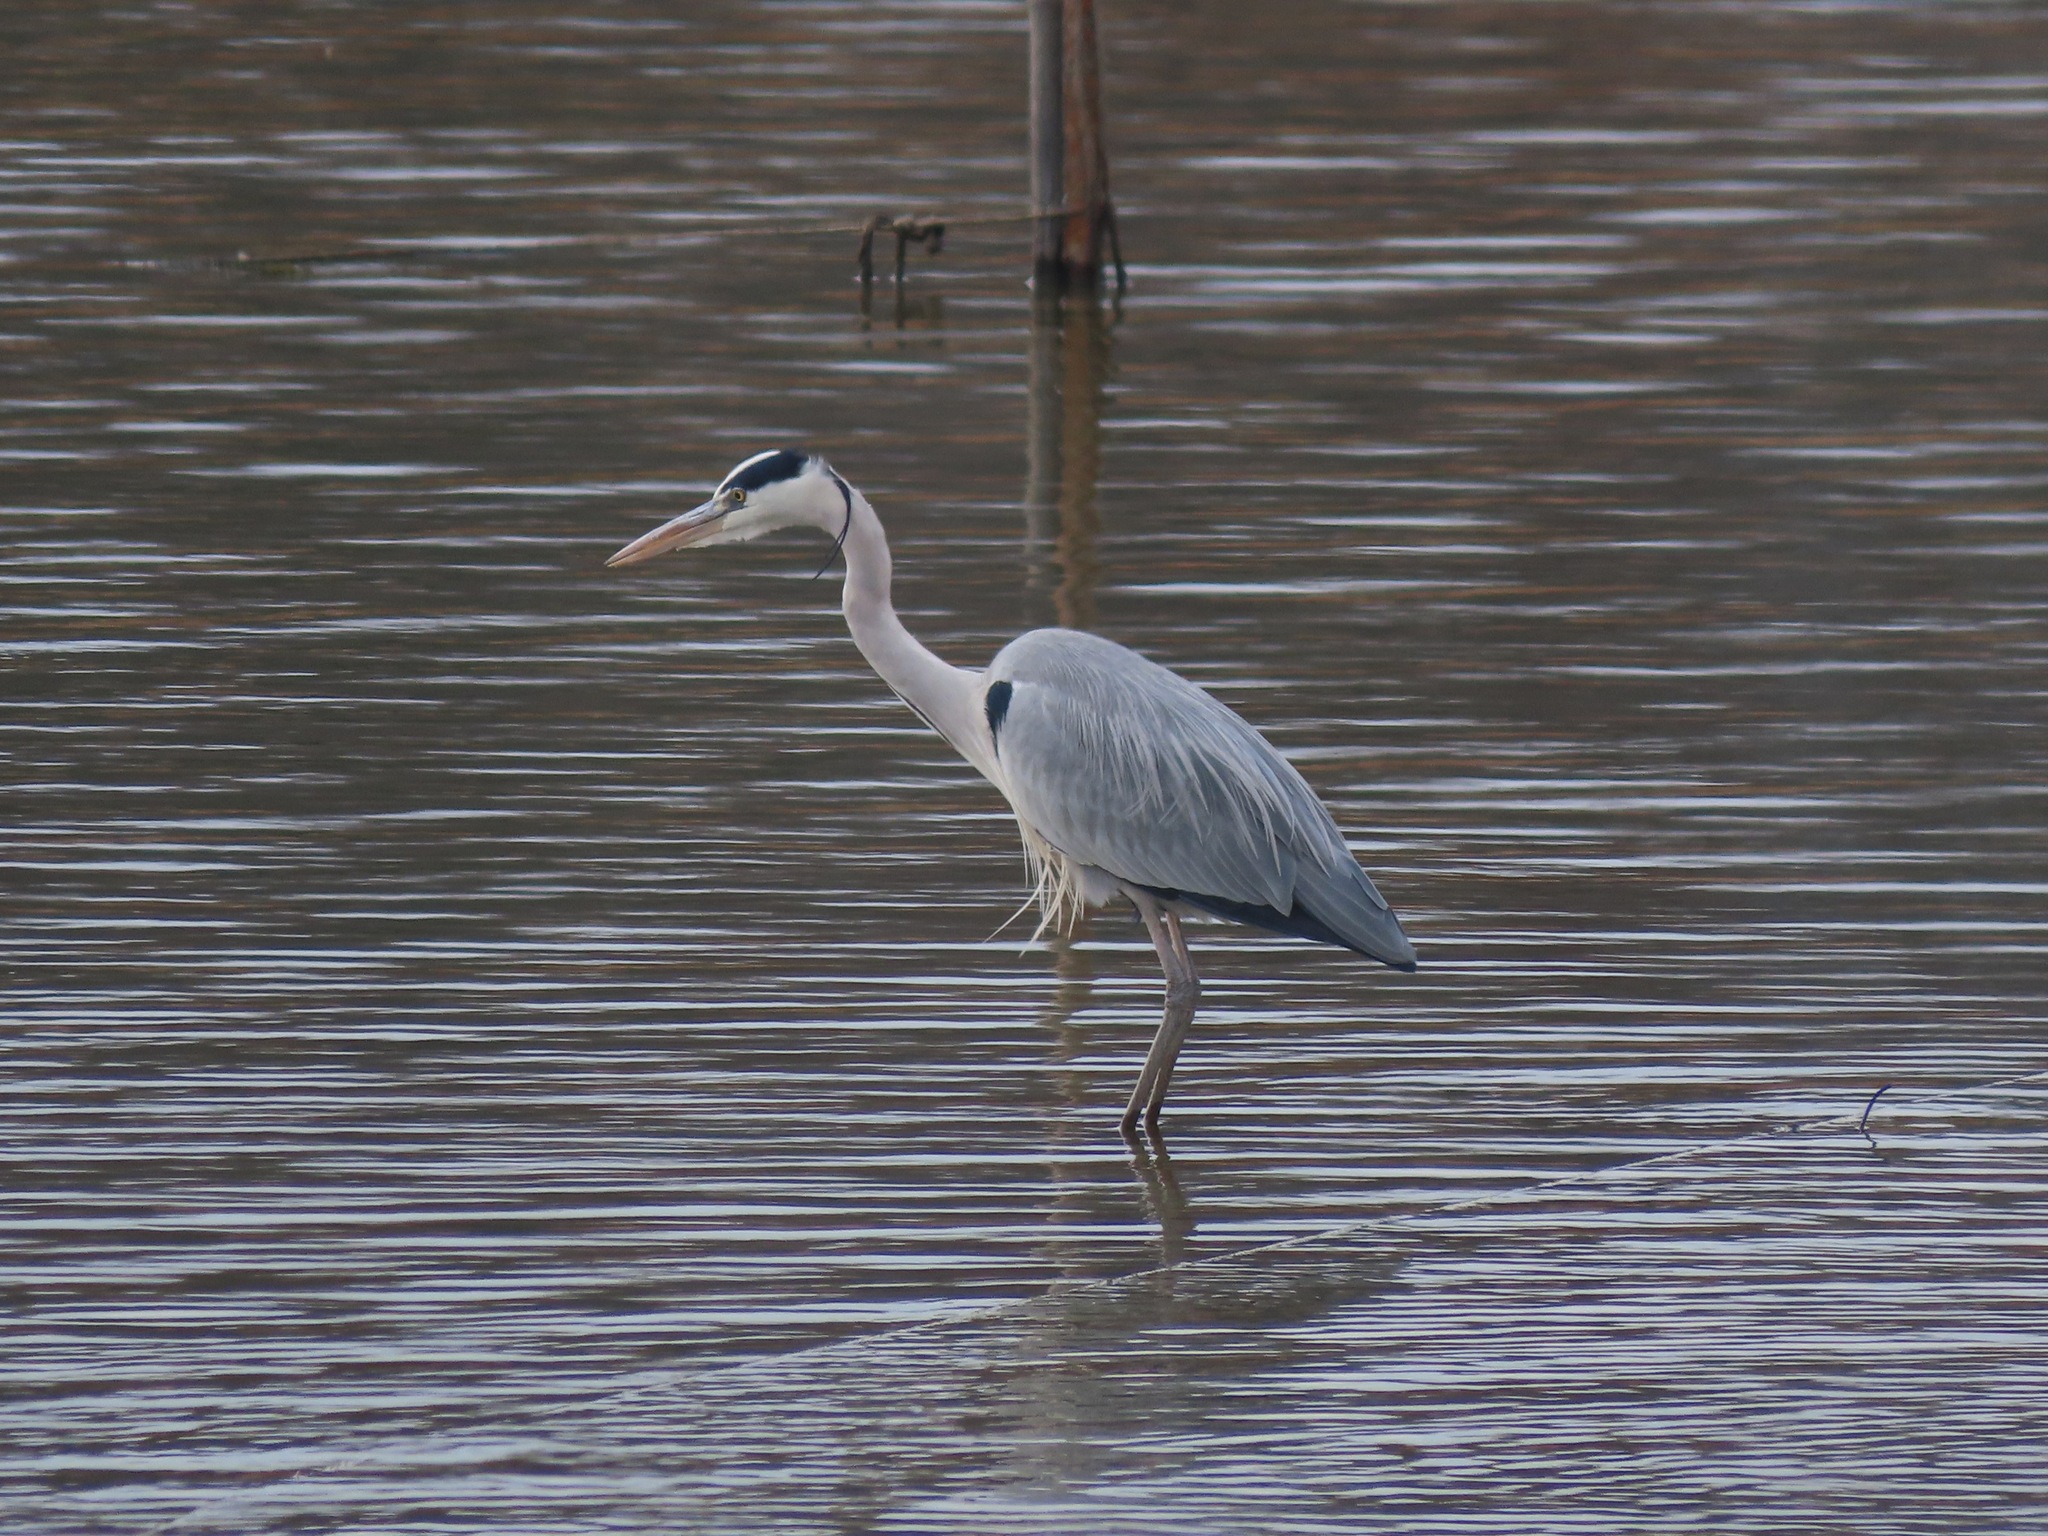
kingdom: Animalia
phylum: Chordata
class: Aves
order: Pelecaniformes
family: Ardeidae
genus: Ardea
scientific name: Ardea cinerea
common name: Grey heron
